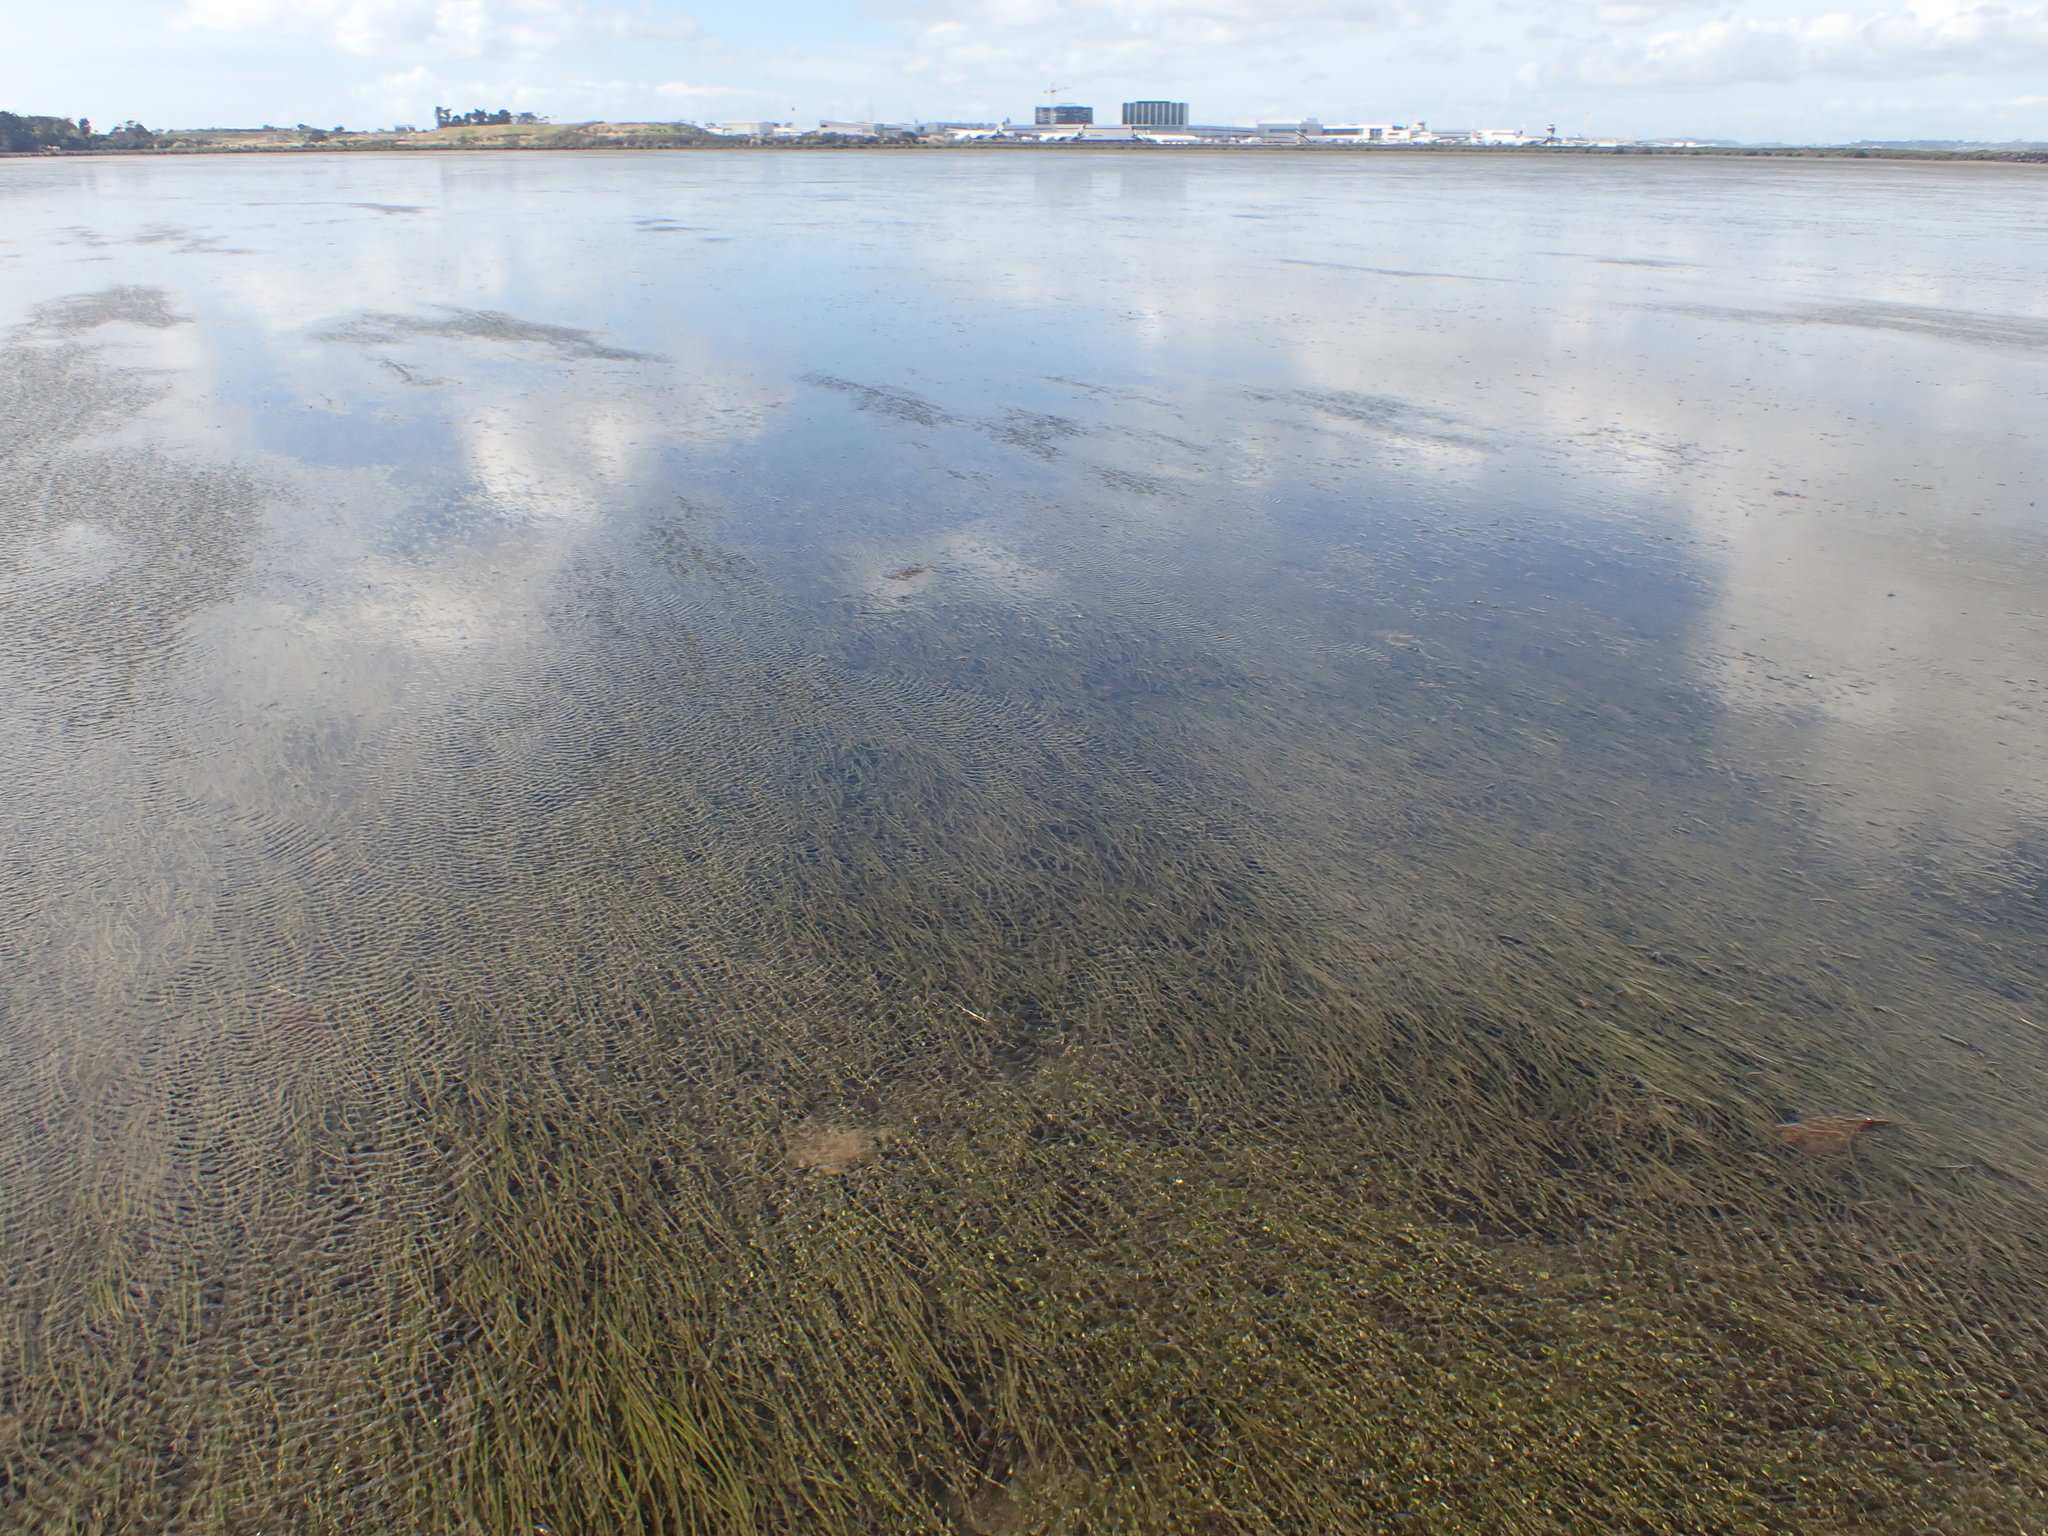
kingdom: Plantae
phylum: Tracheophyta
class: Liliopsida
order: Alismatales
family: Zosteraceae
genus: Zostera
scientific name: Zostera novazelandica
